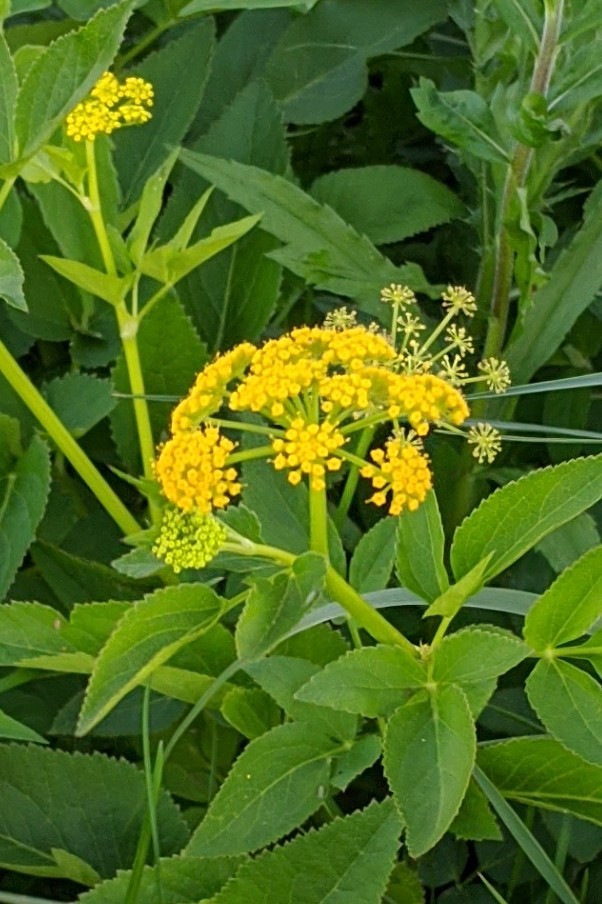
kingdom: Plantae
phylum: Tracheophyta
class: Magnoliopsida
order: Apiales
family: Apiaceae
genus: Zizia
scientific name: Zizia aurea
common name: Golden alexanders
